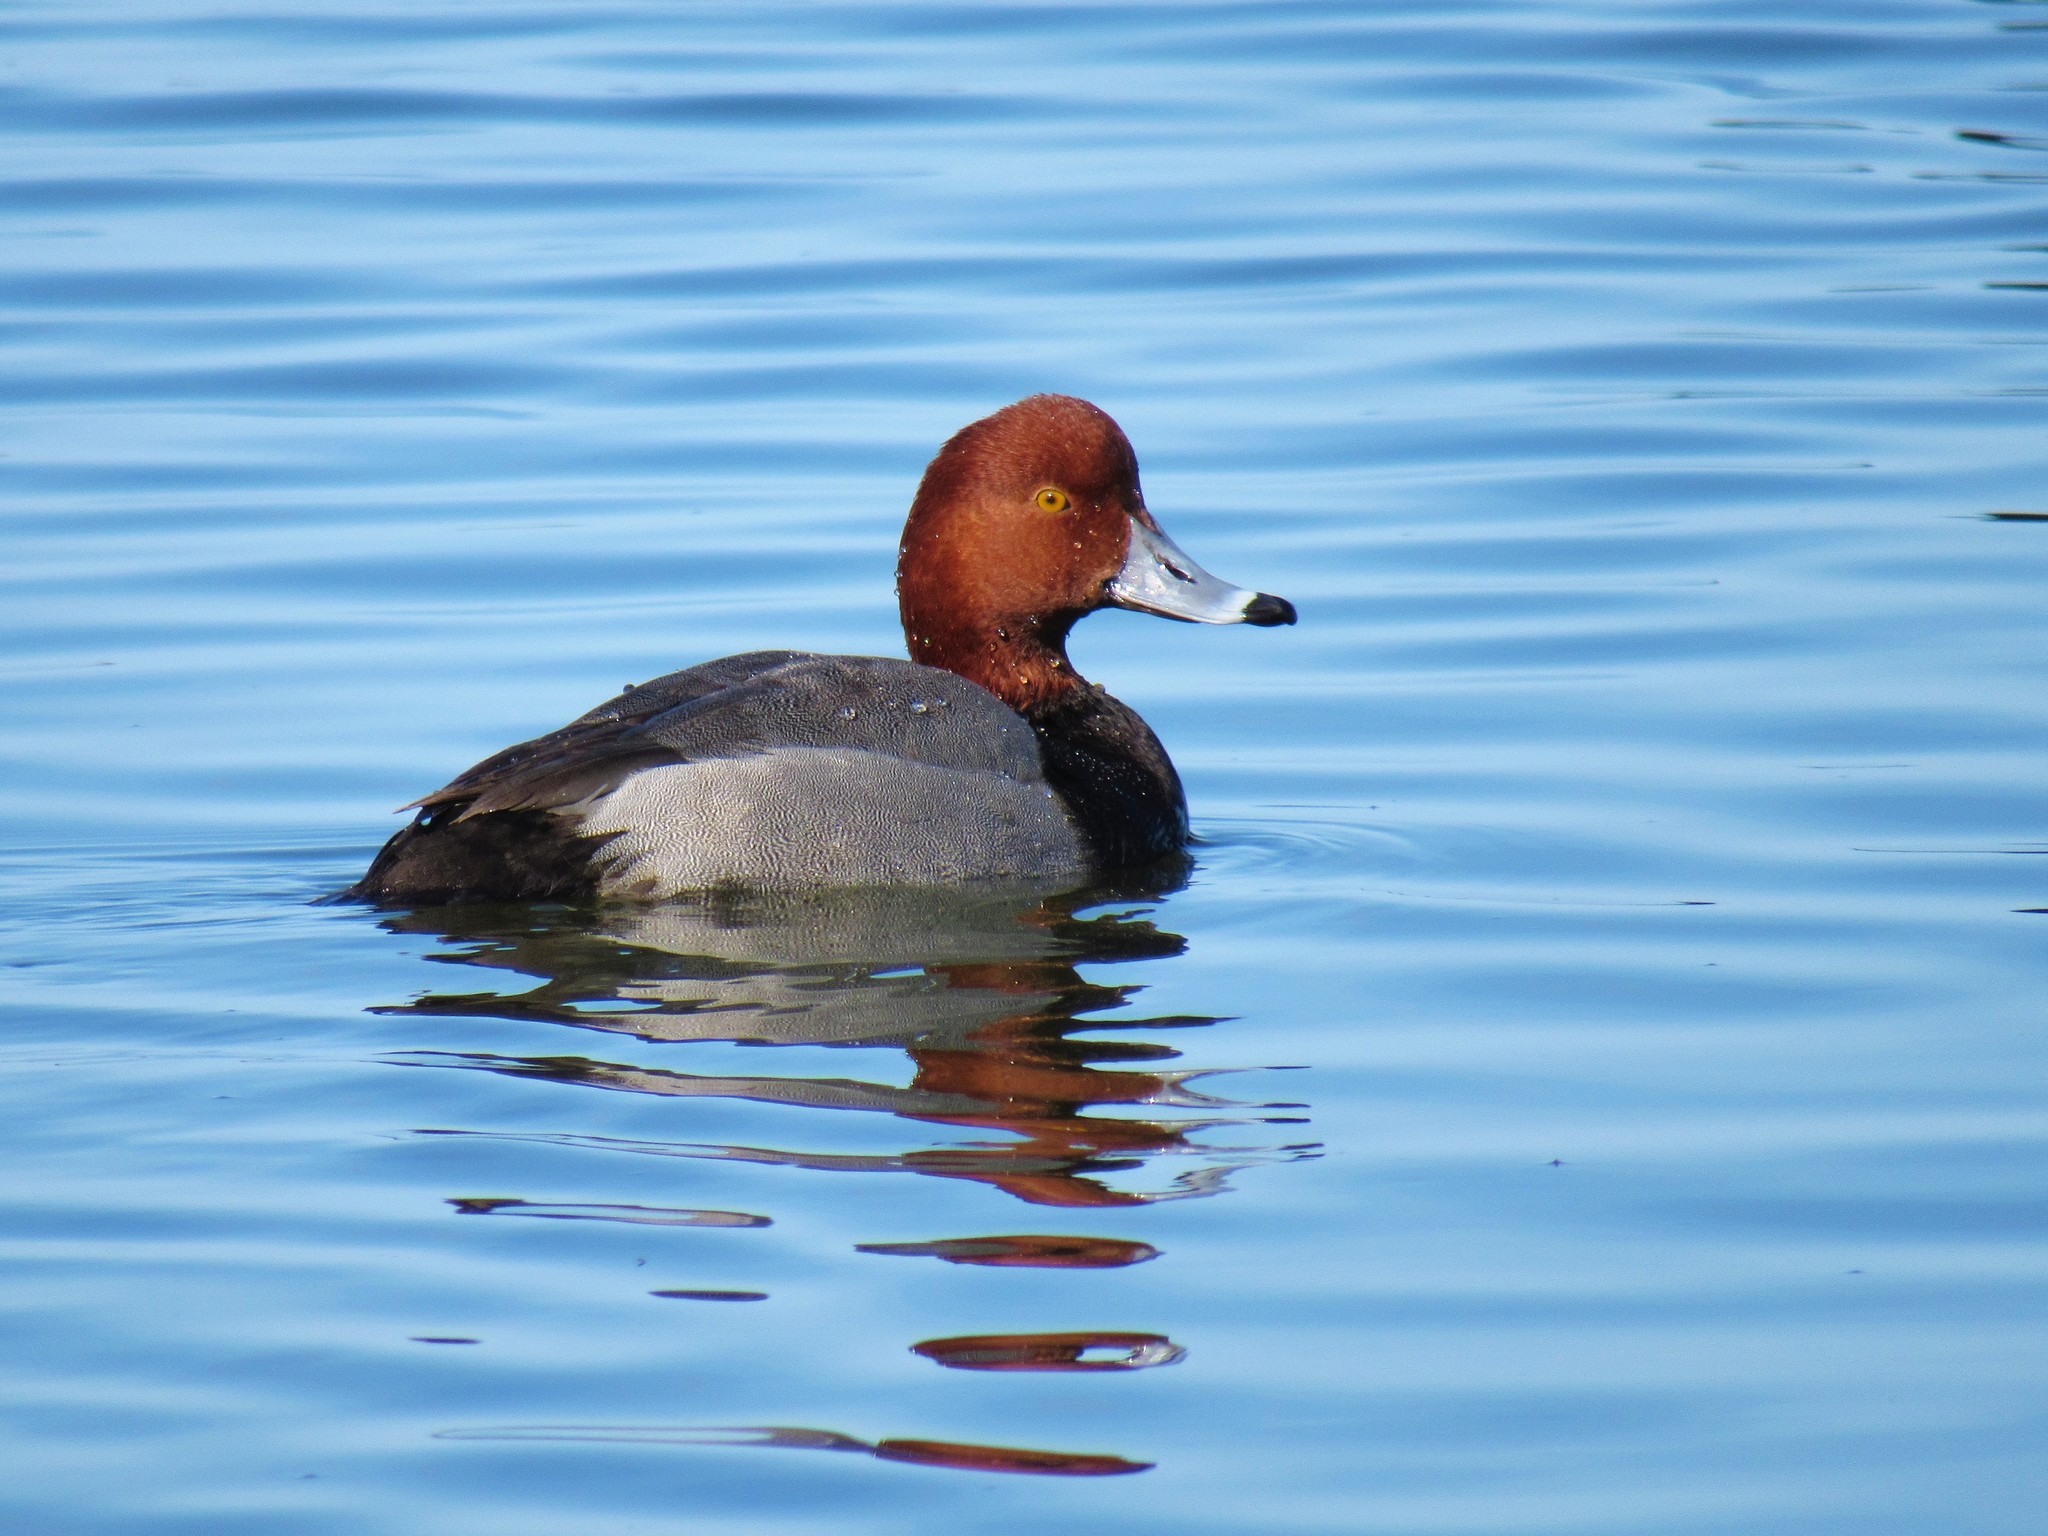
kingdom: Animalia
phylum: Chordata
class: Aves
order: Anseriformes
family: Anatidae
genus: Aythya
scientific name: Aythya americana
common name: Redhead
